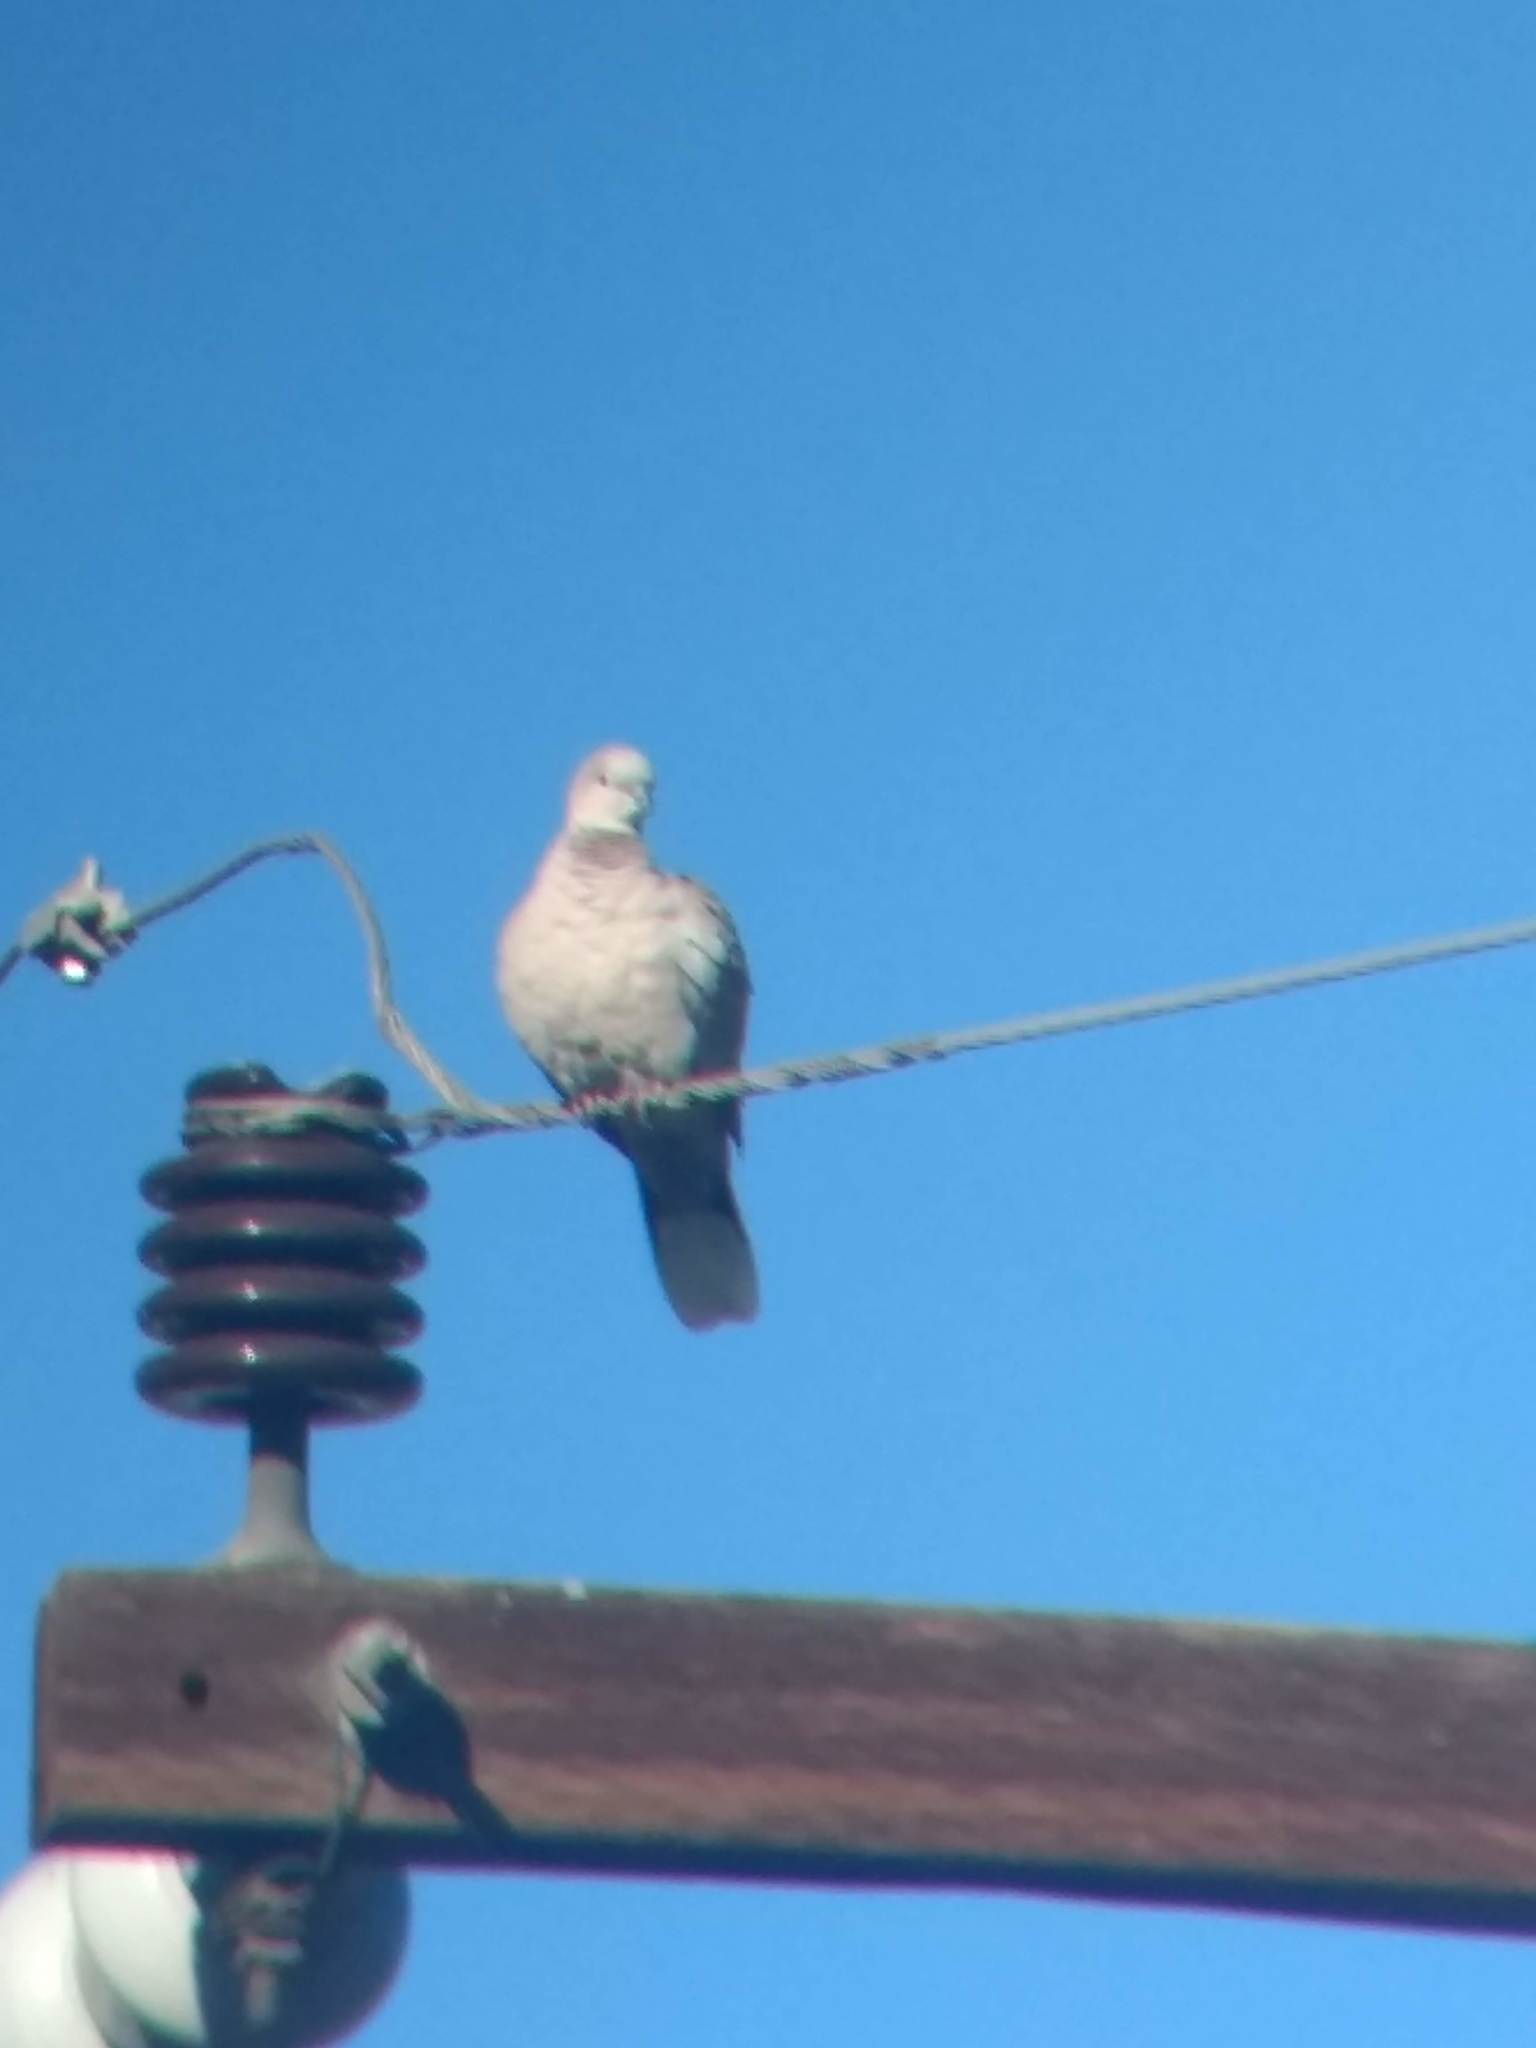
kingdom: Animalia
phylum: Chordata
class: Aves
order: Columbiformes
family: Columbidae
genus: Streptopelia
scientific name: Streptopelia decaocto
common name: Eurasian collared dove
